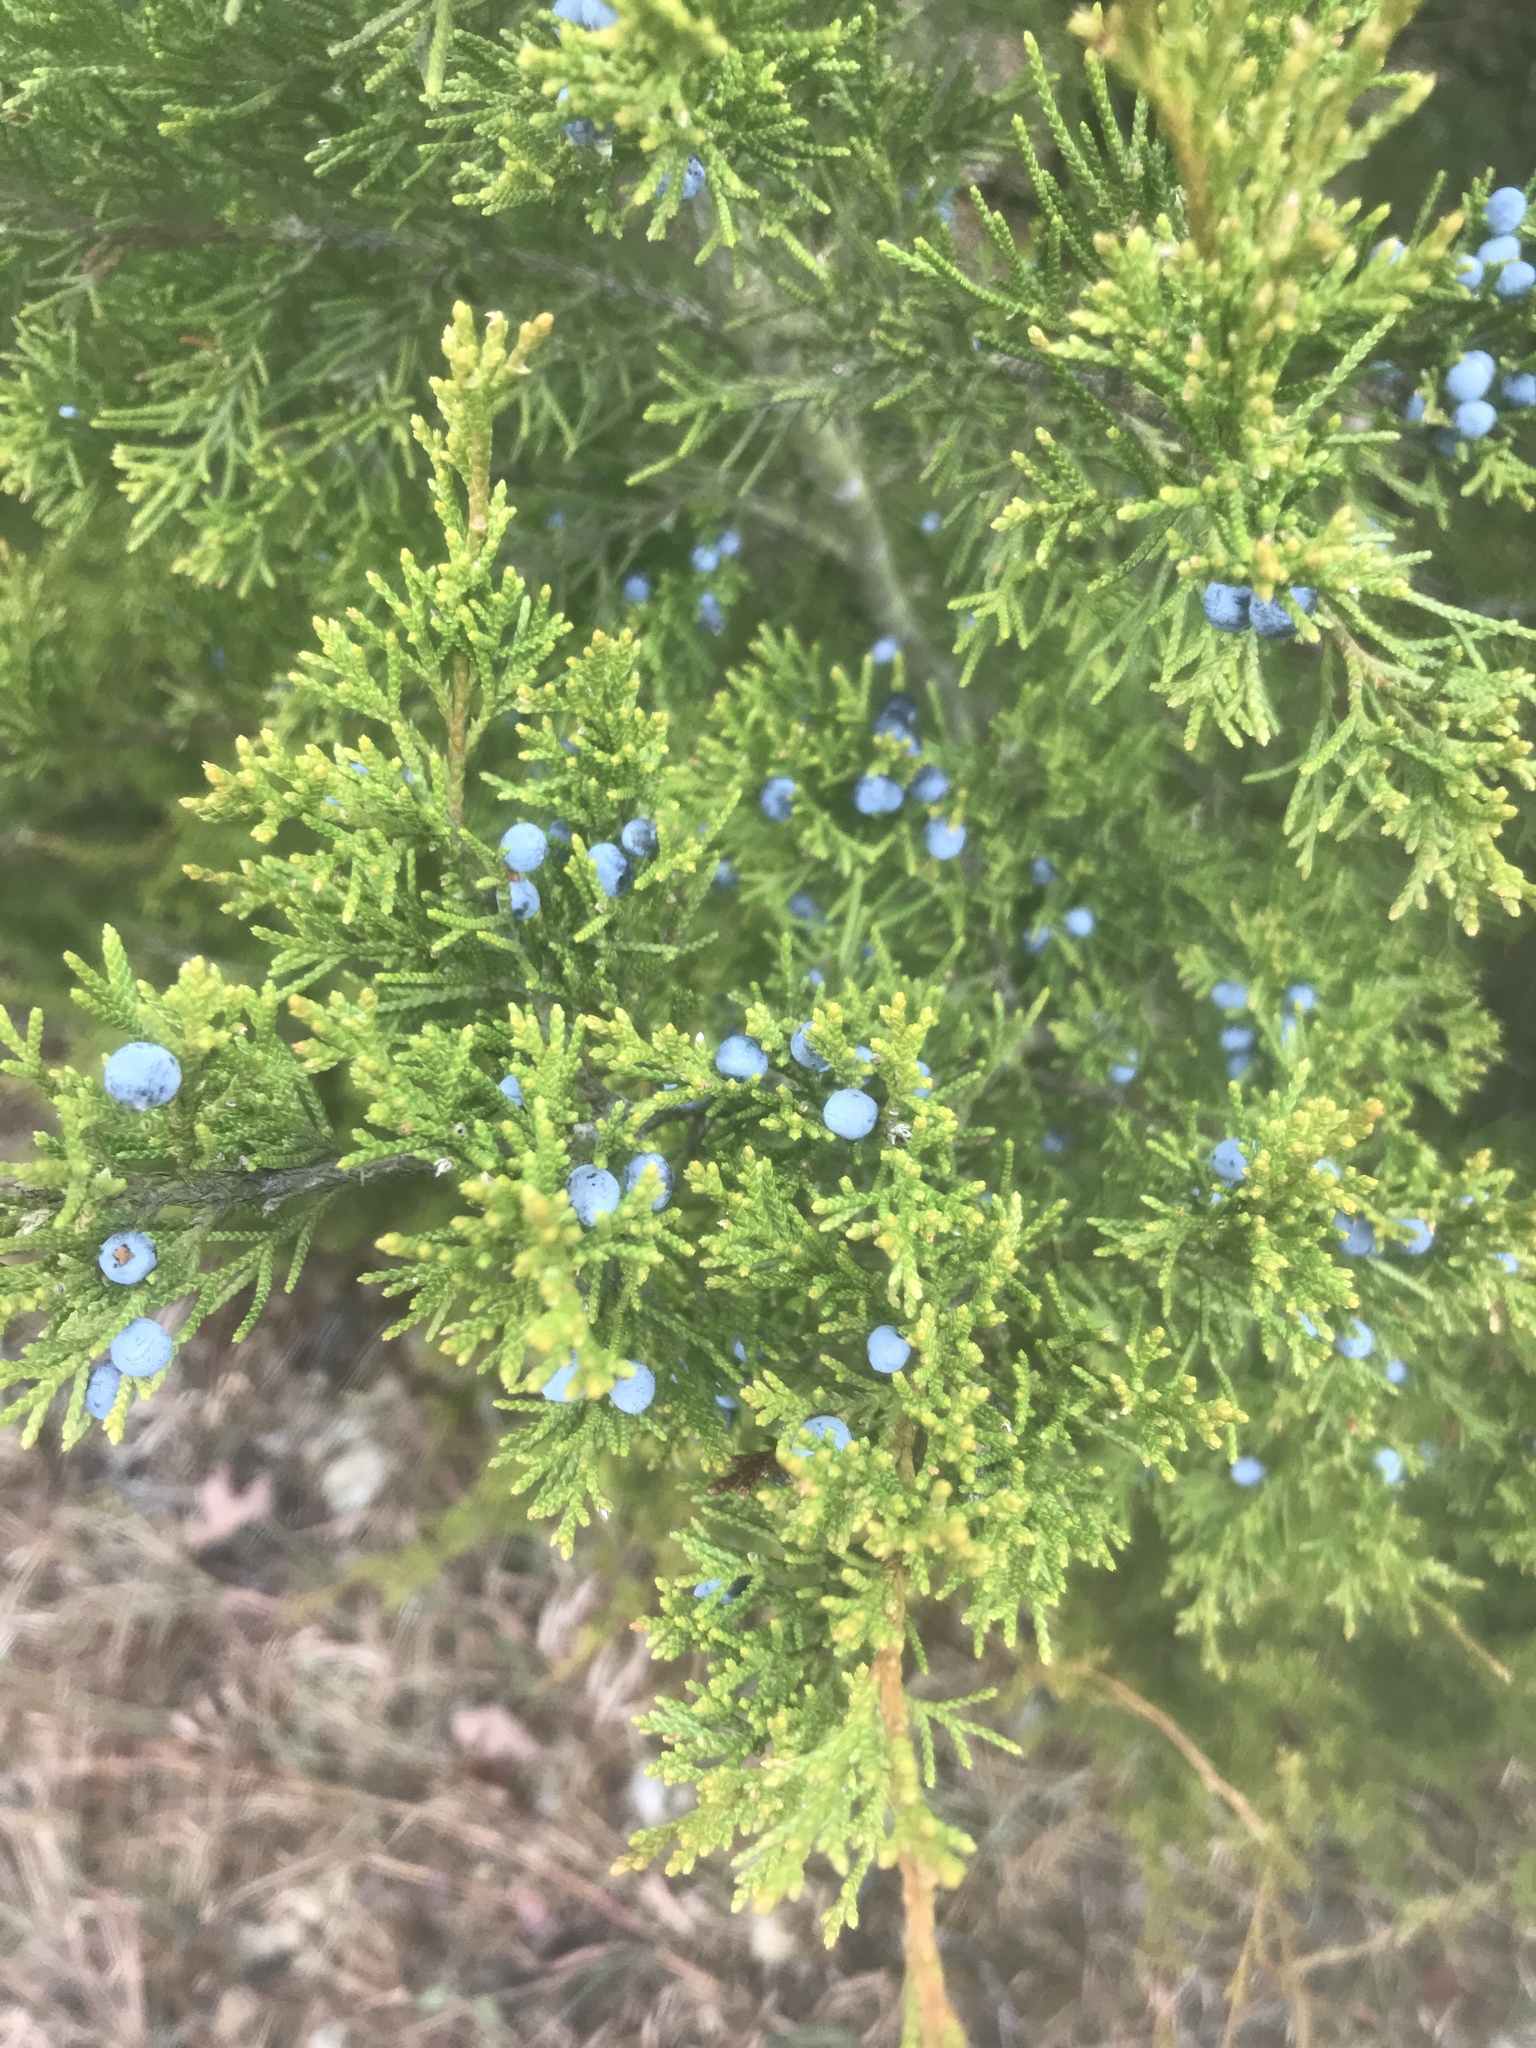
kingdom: Plantae
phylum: Tracheophyta
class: Pinopsida
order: Pinales
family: Cupressaceae
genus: Juniperus
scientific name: Juniperus virginiana
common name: Red juniper
